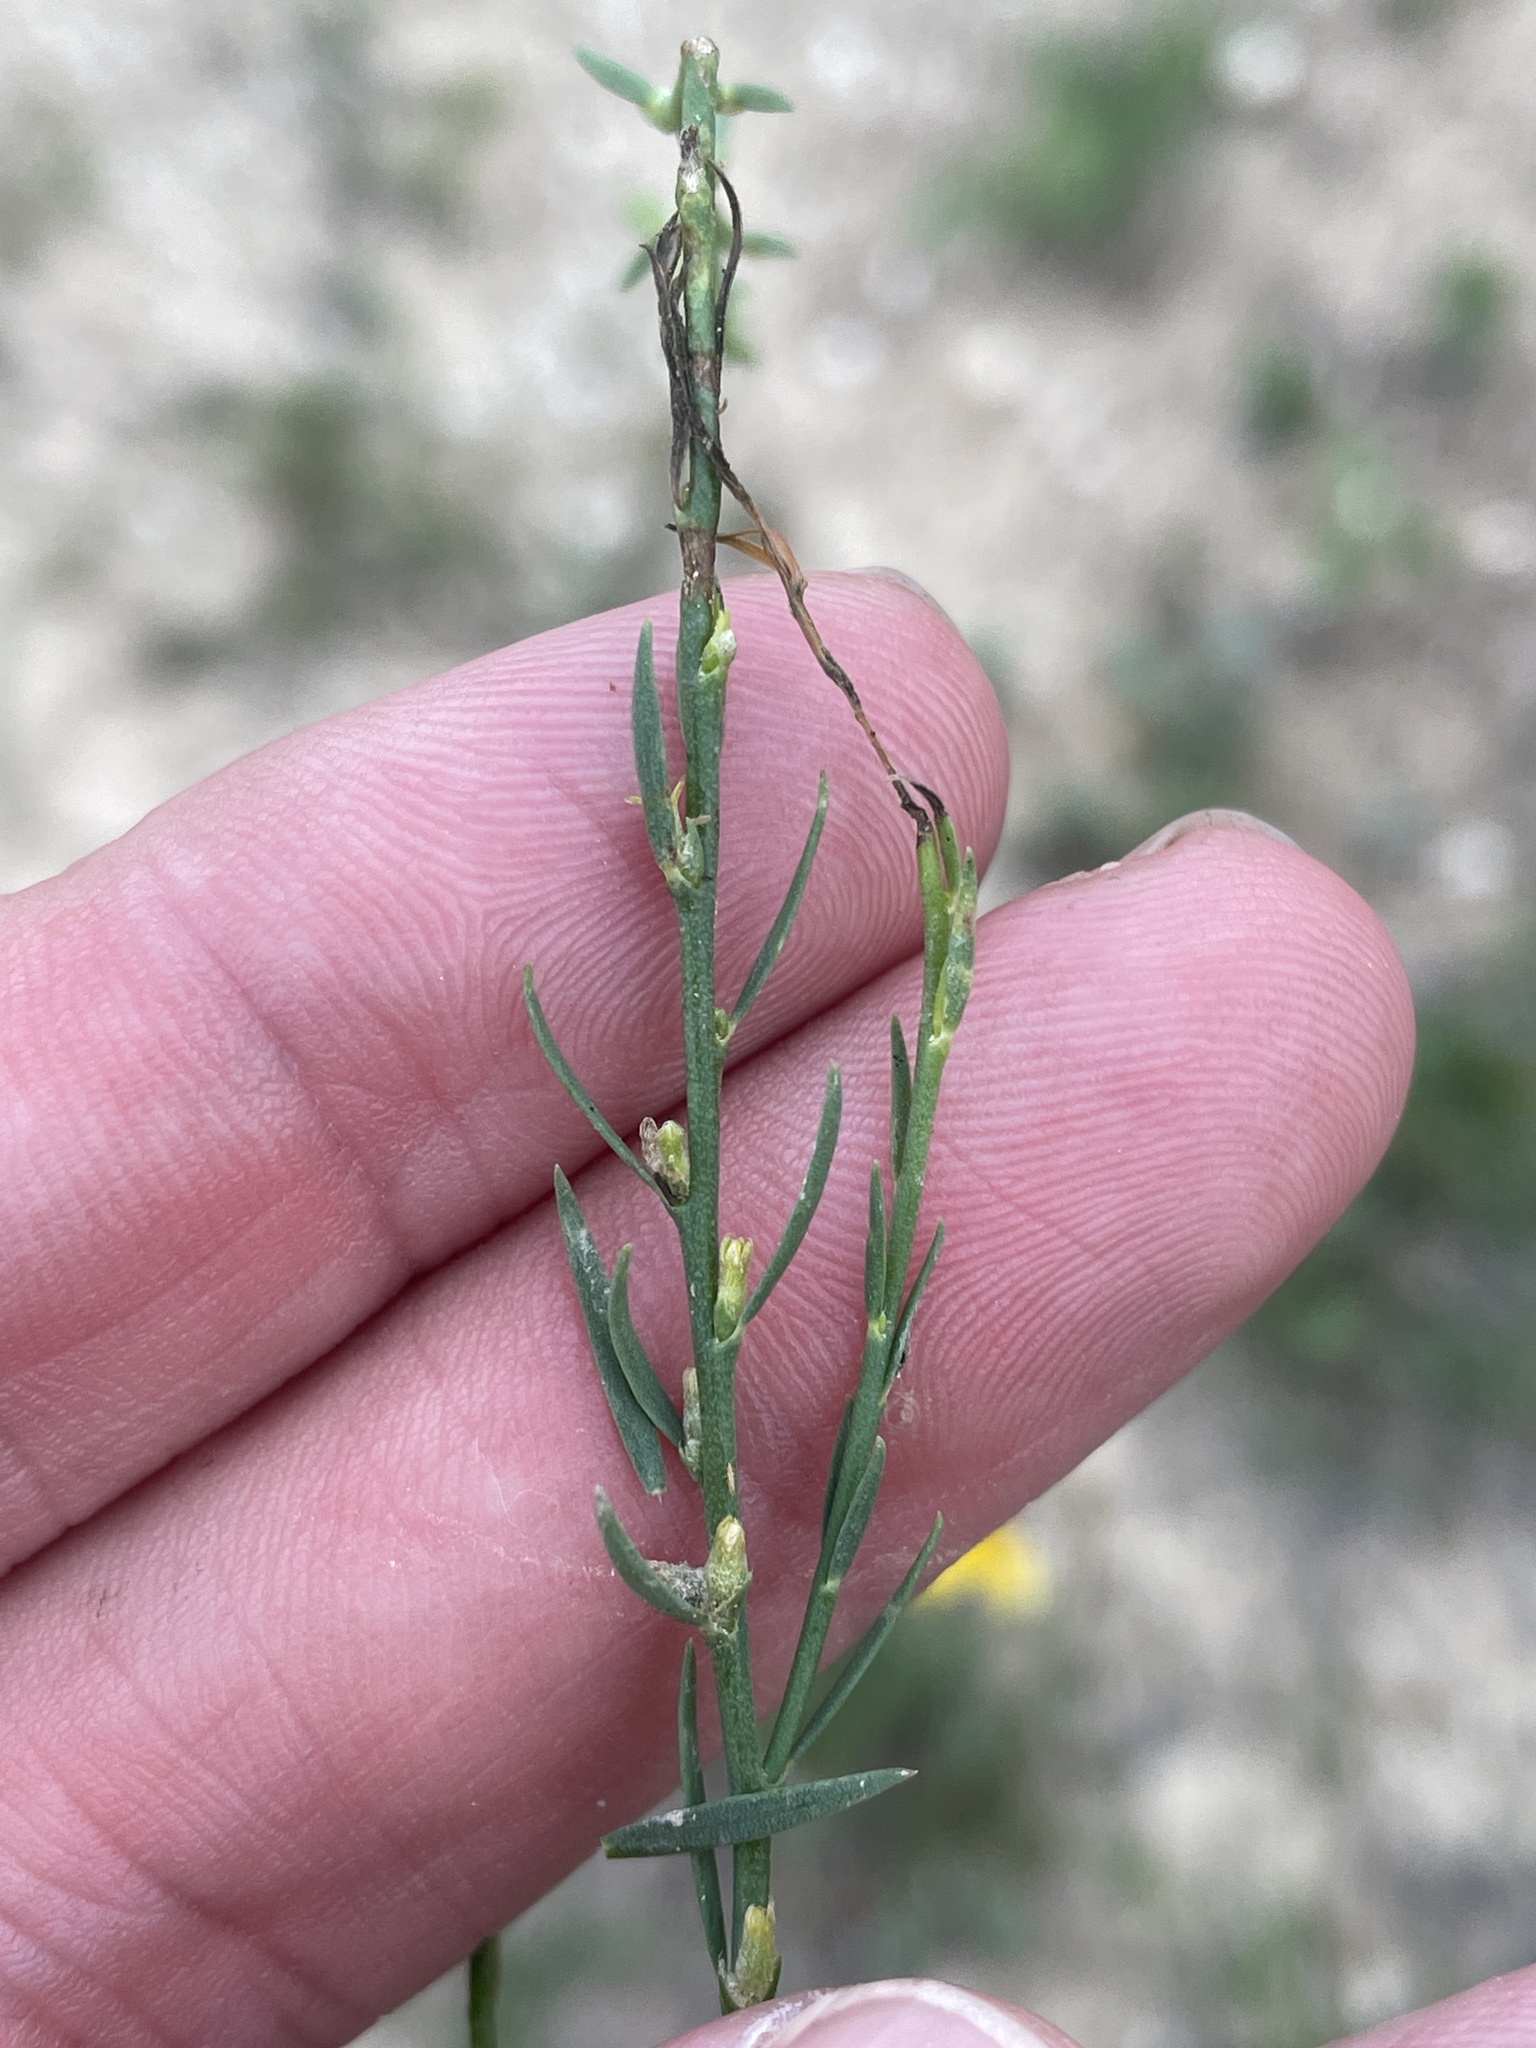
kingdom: Plantae
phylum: Tracheophyta
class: Magnoliopsida
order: Malvales
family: Thymelaeaceae
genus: Thymelaea
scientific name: Thymelaea passerina
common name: Annual thymelaea
